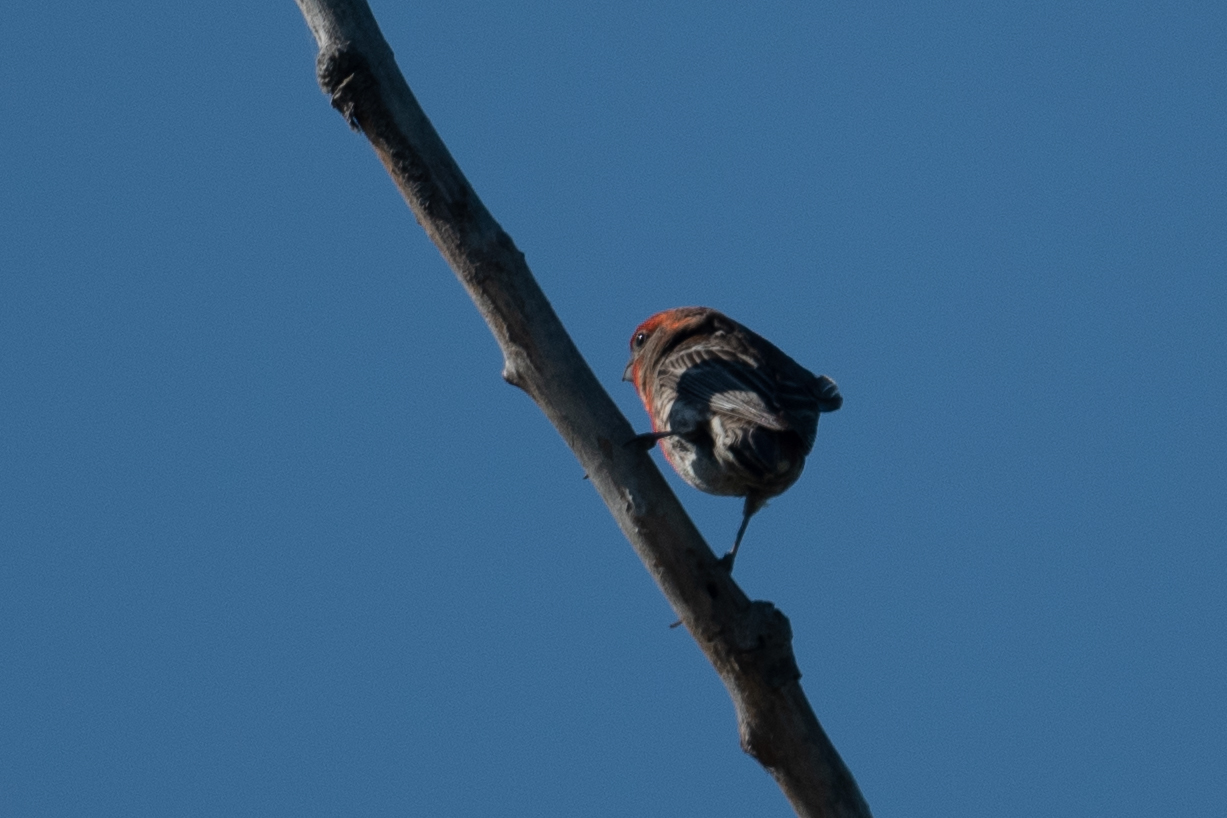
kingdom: Animalia
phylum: Chordata
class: Aves
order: Passeriformes
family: Fringillidae
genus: Haemorhous
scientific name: Haemorhous mexicanus
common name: House finch
